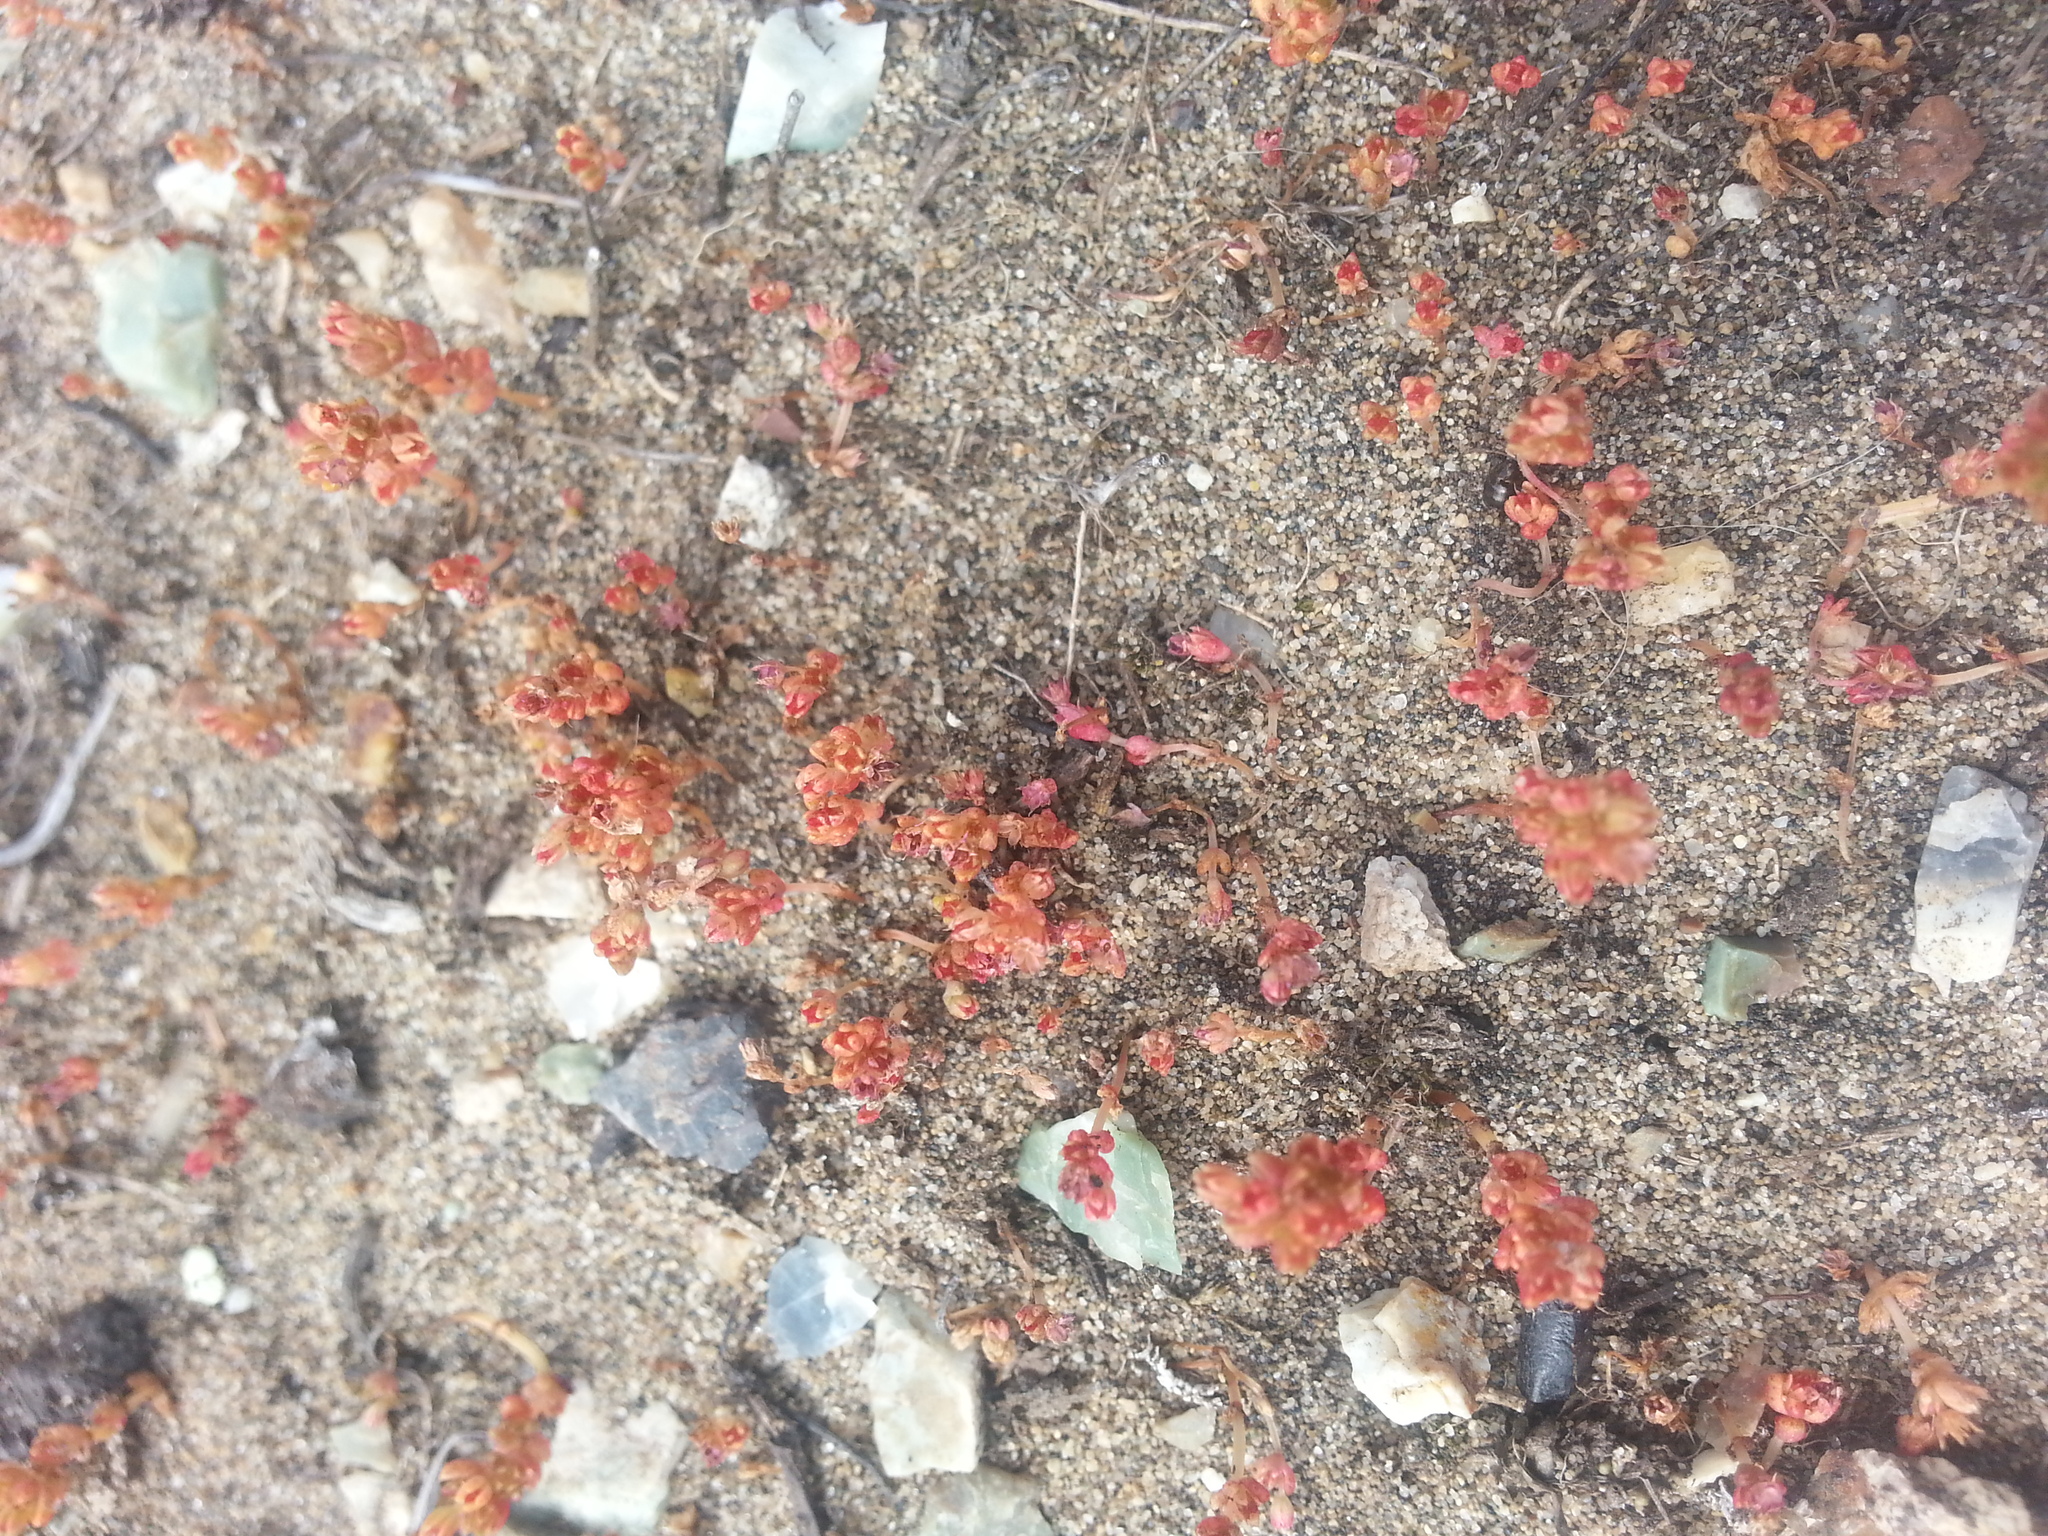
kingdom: Plantae
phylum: Tracheophyta
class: Magnoliopsida
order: Saxifragales
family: Crassulaceae
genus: Crassula
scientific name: Crassula connata
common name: Erect pygmyweed
